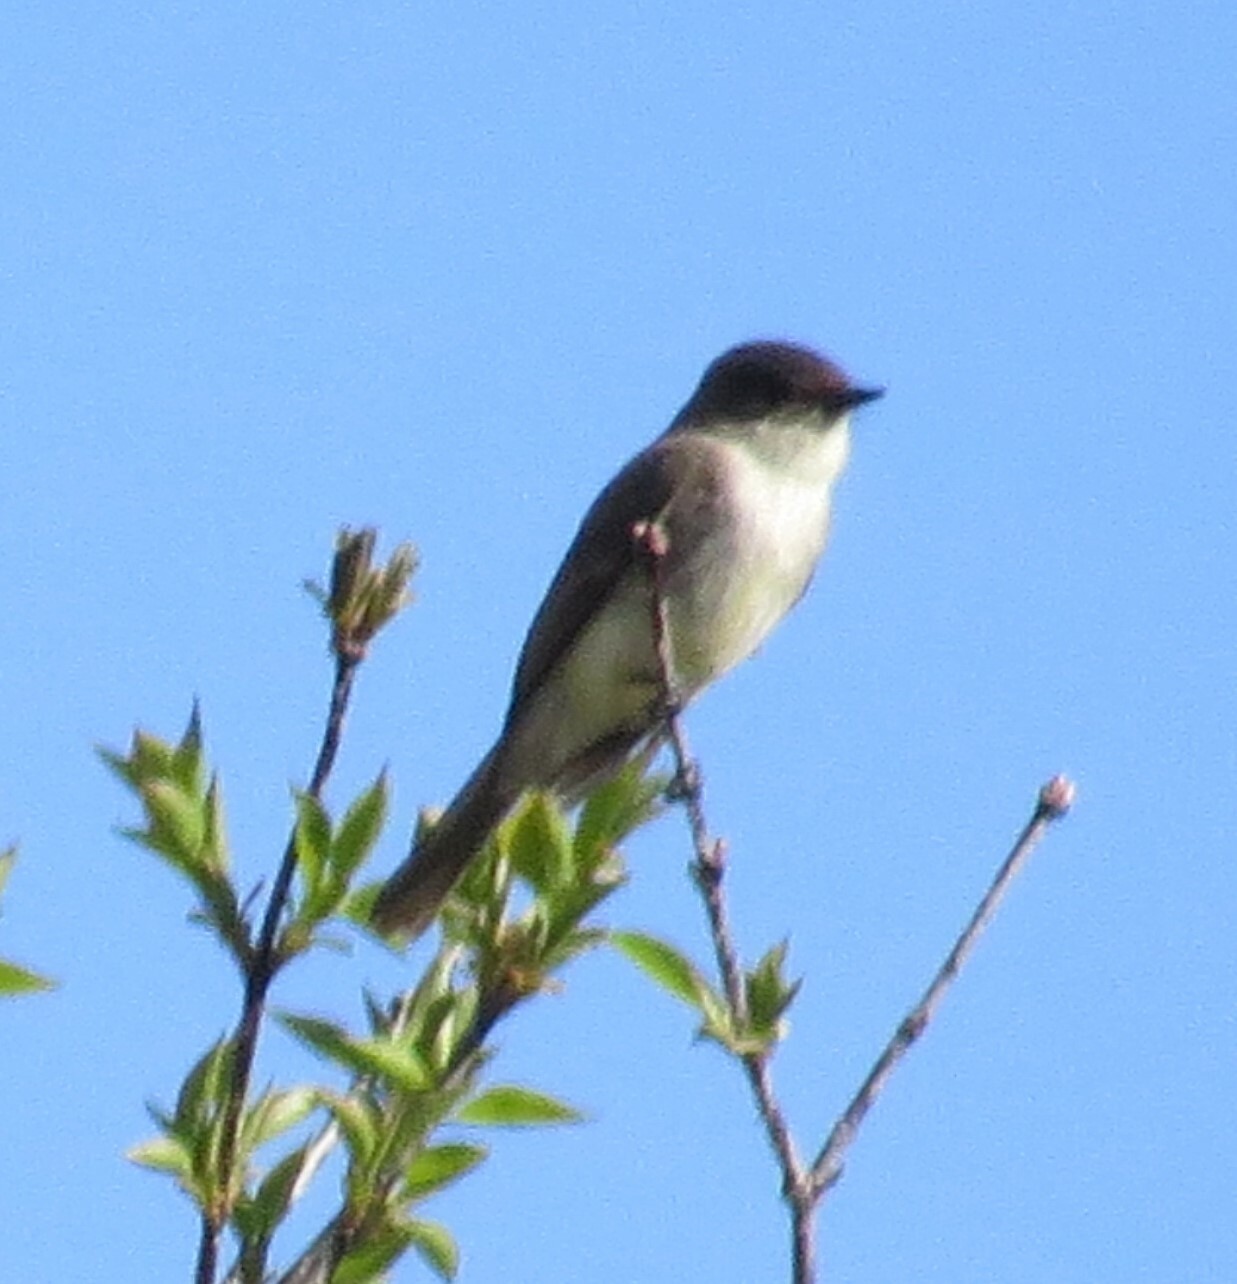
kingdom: Animalia
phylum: Chordata
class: Aves
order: Passeriformes
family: Tyrannidae
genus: Sayornis
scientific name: Sayornis phoebe
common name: Eastern phoebe
